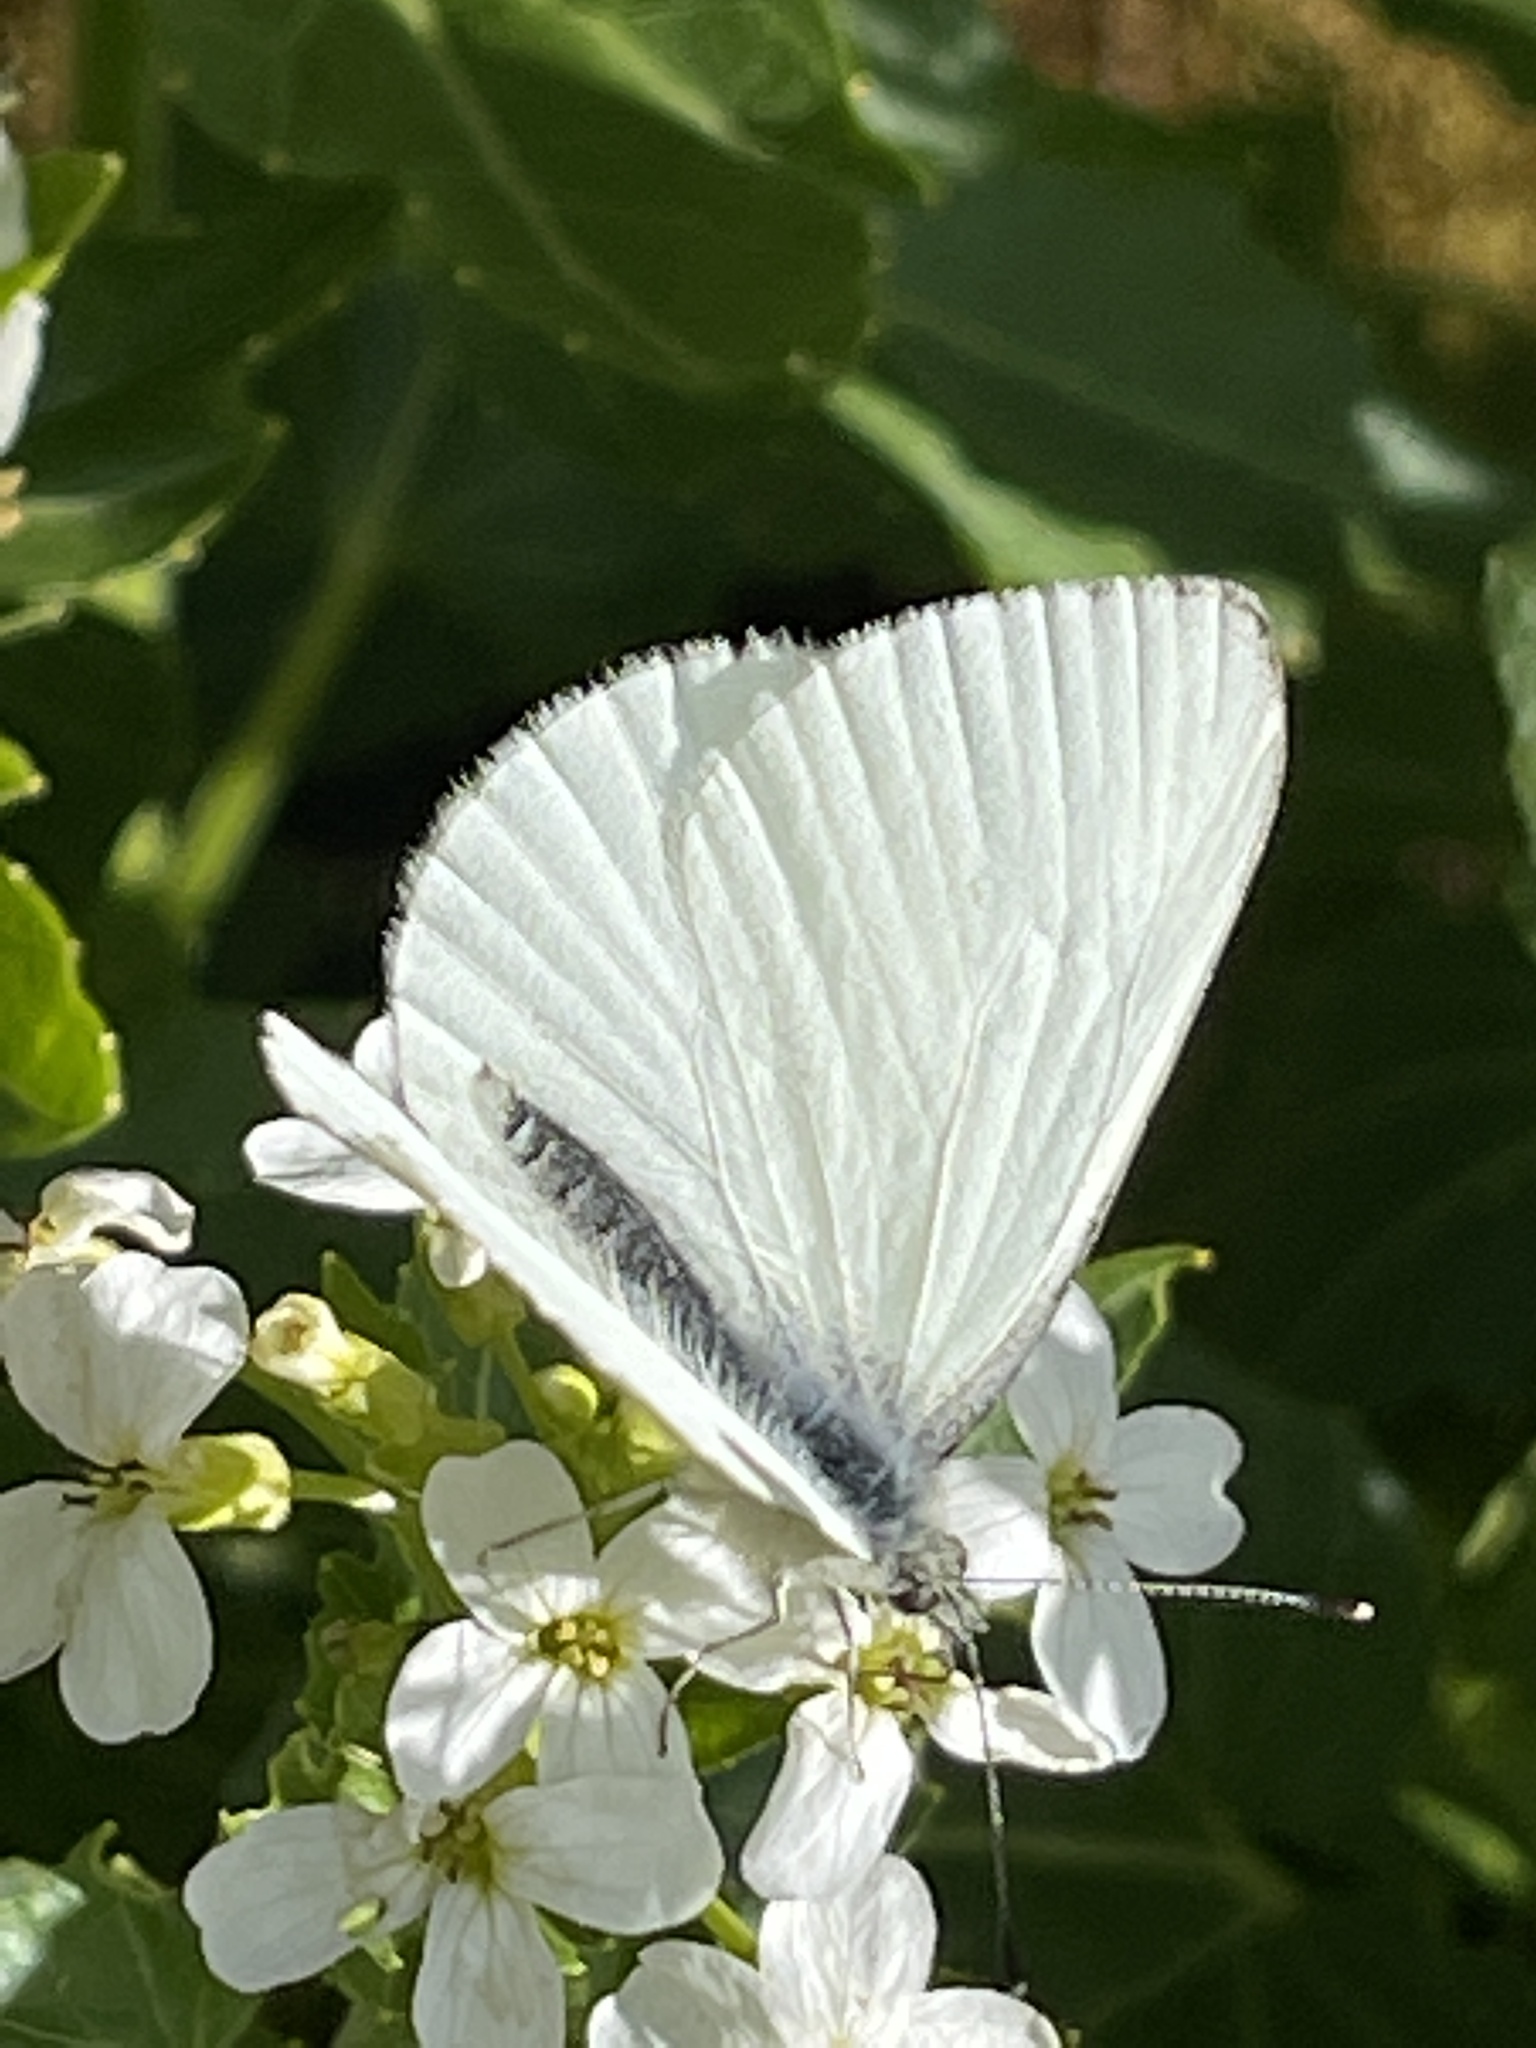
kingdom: Animalia
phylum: Arthropoda
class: Insecta
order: Lepidoptera
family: Pieridae
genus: Pieris
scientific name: Pieris marginalis
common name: Margined white
